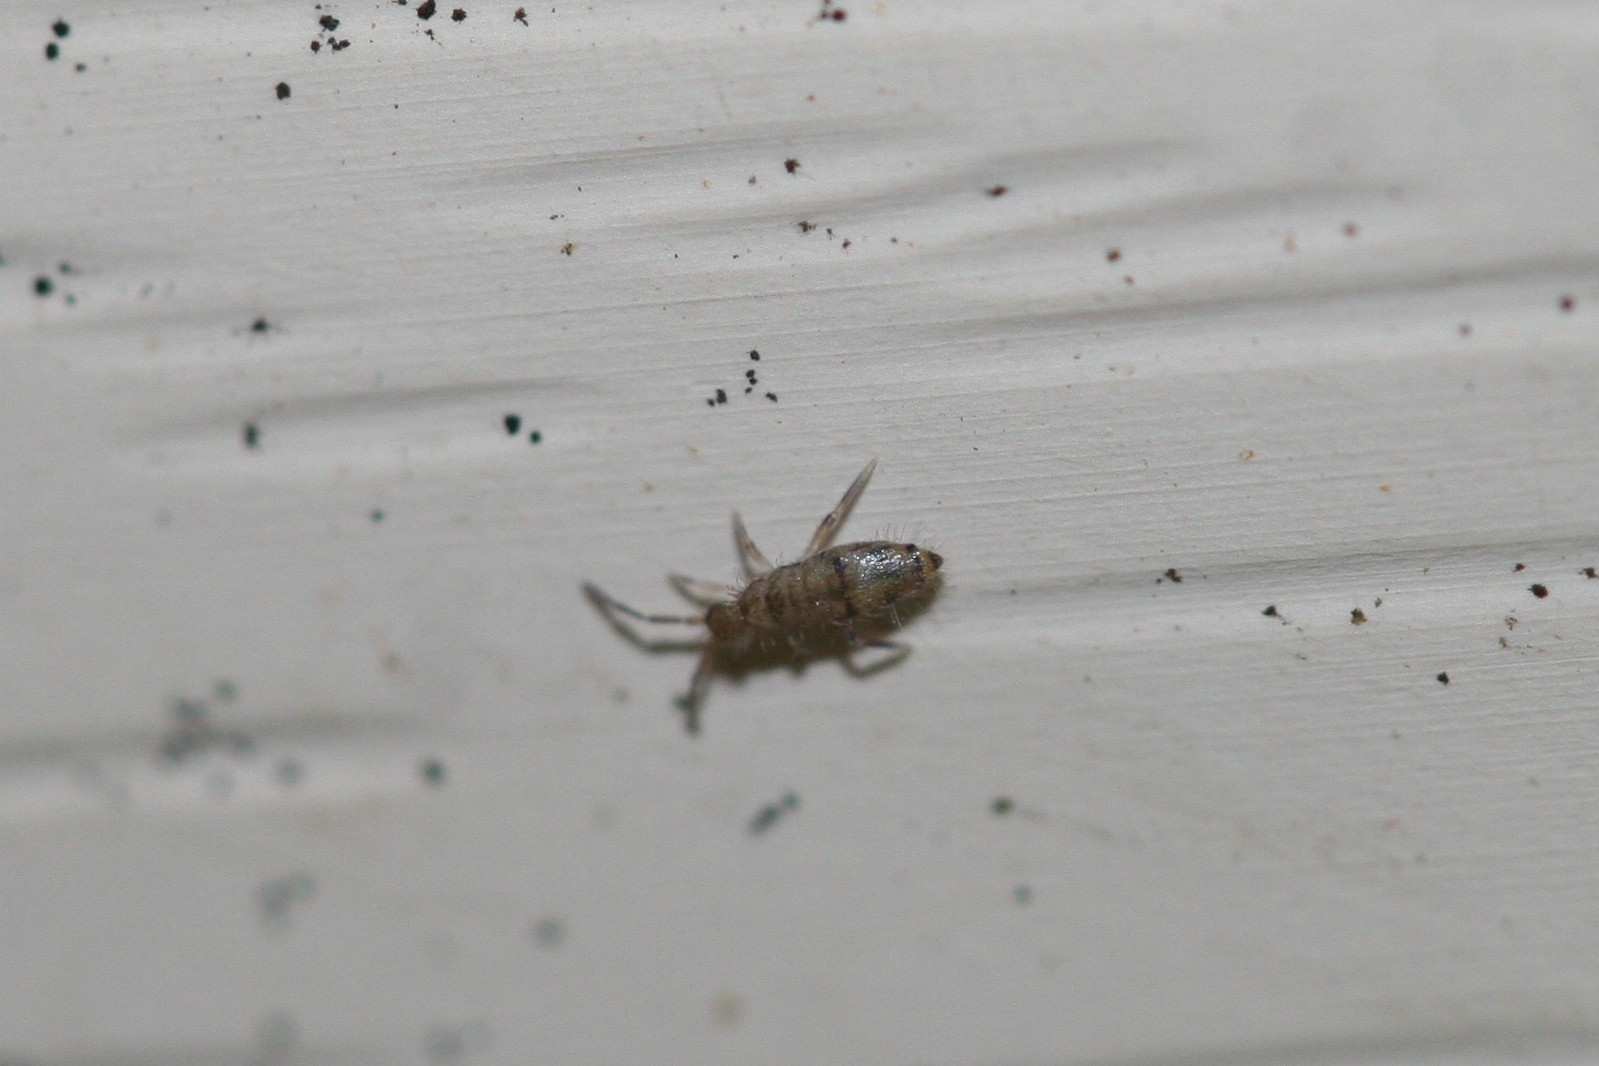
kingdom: Animalia
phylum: Arthropoda
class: Collembola
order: Entomobryomorpha
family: Entomobryidae
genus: Willowsia
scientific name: Willowsia nigromaculata
